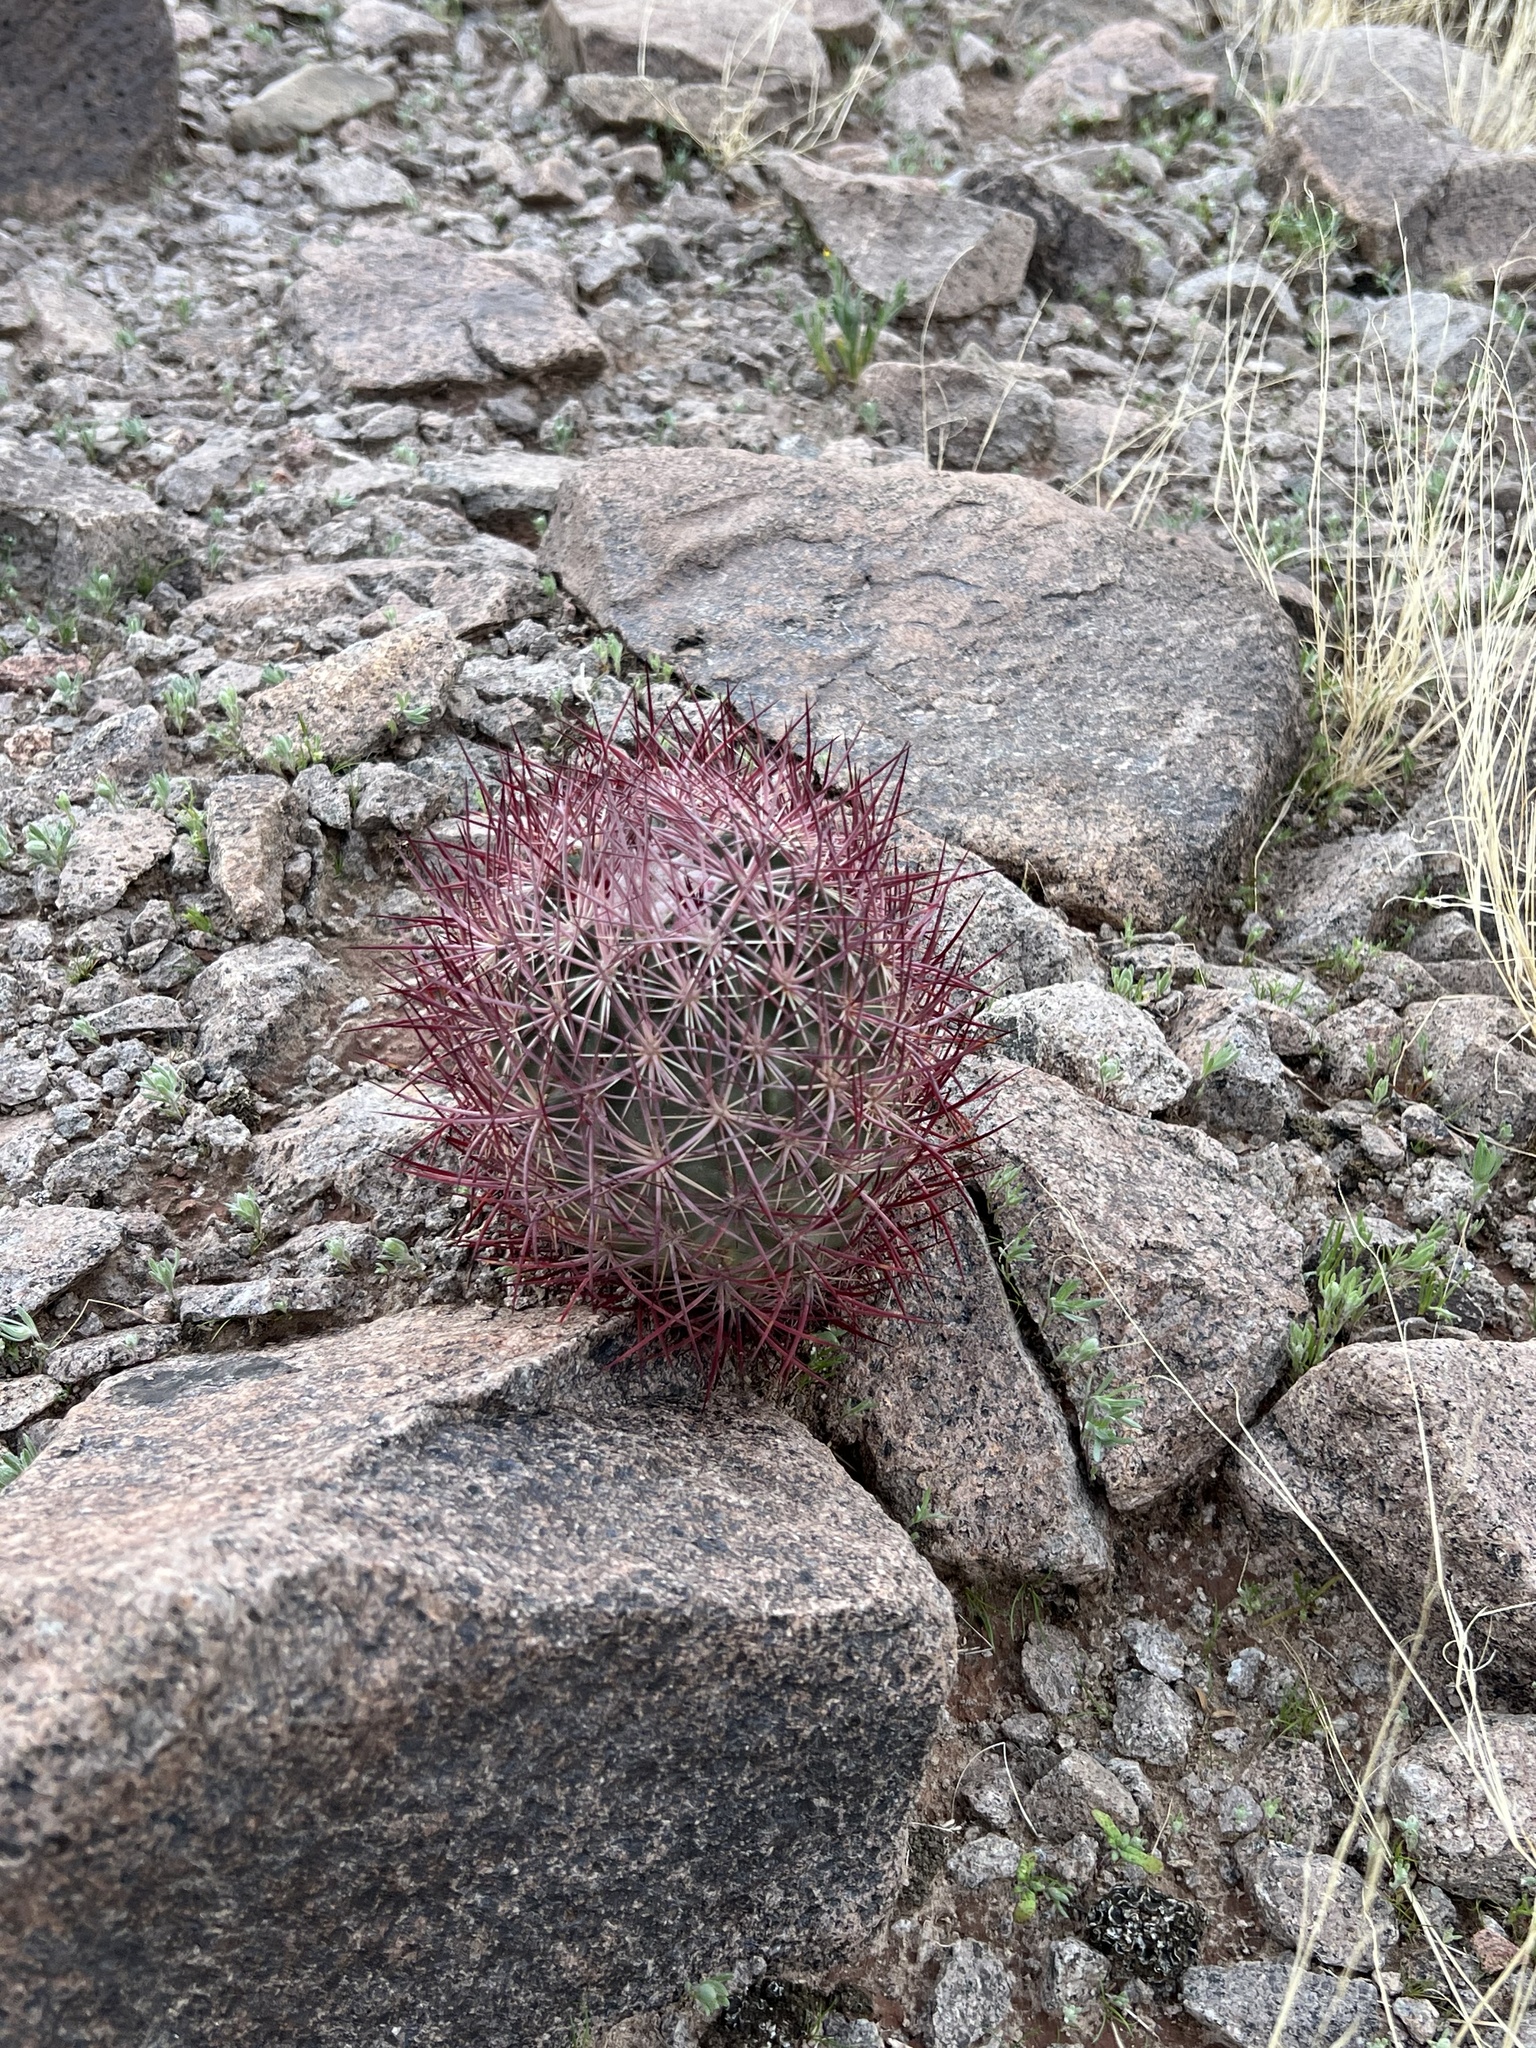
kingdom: Plantae
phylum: Tracheophyta
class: Magnoliopsida
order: Caryophyllales
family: Cactaceae
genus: Sclerocactus
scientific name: Sclerocactus johnsonii
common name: Eight-spine fishhook cactus
